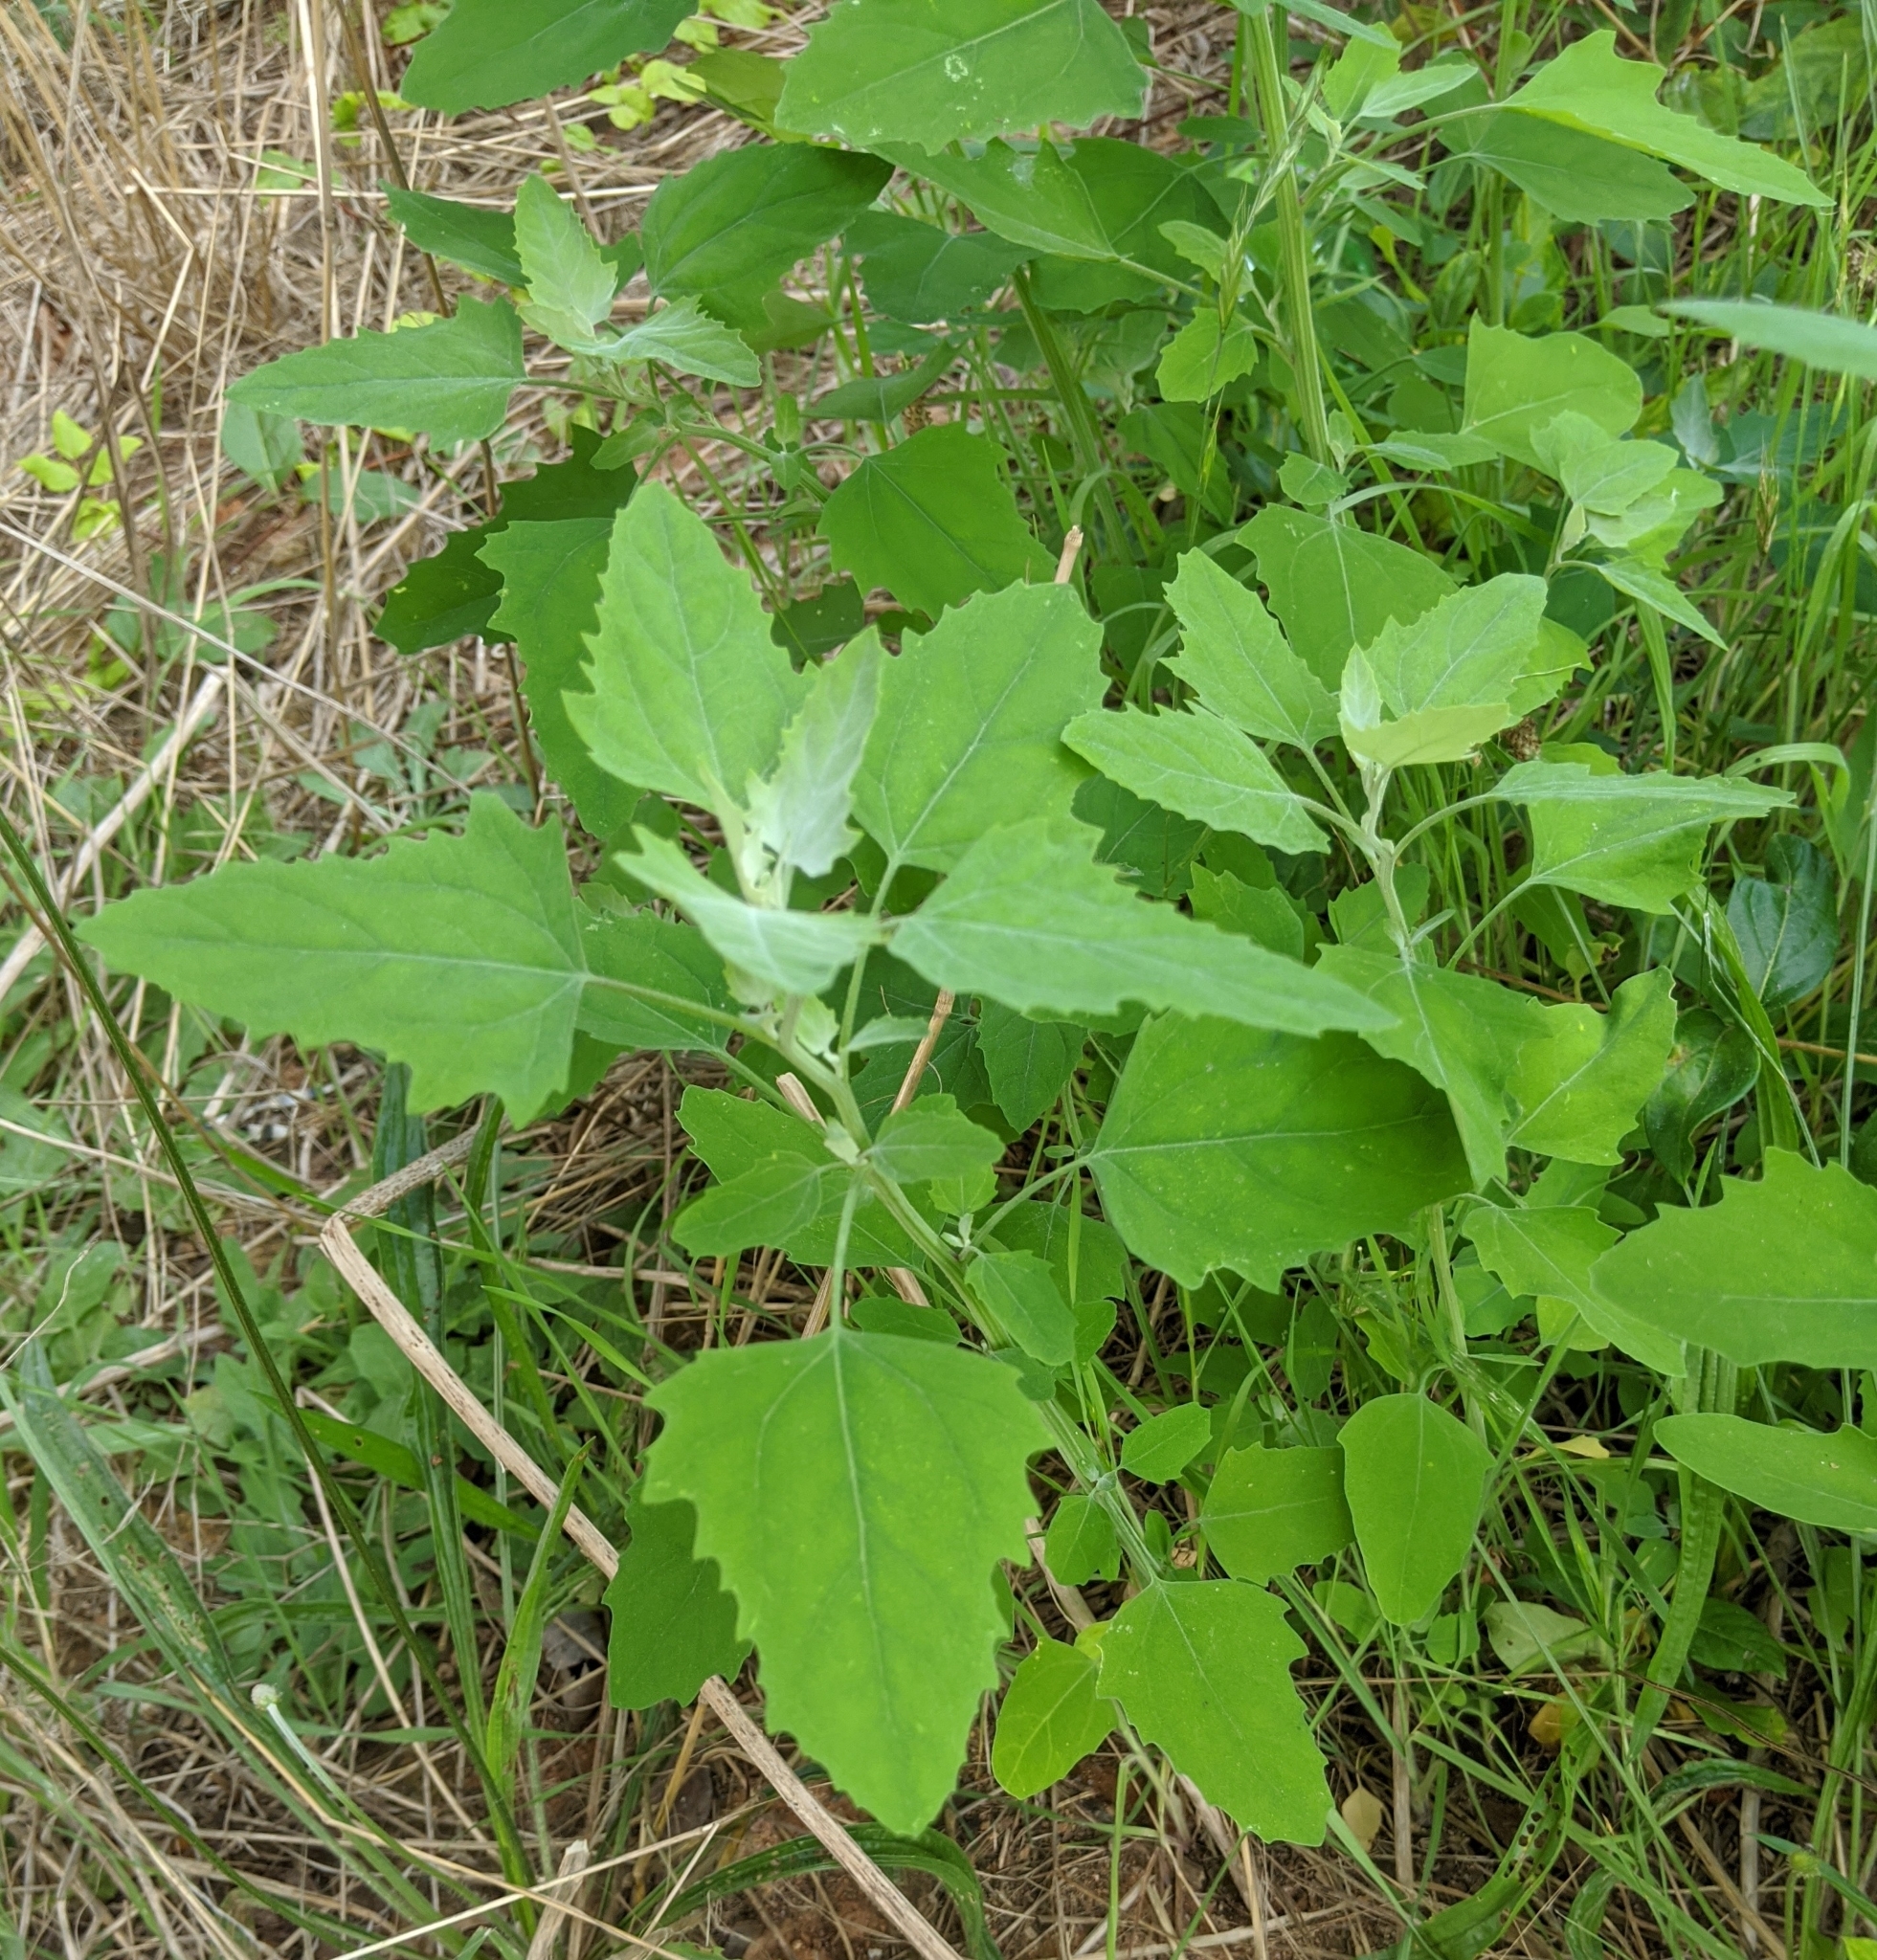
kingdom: Plantae
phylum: Tracheophyta
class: Magnoliopsida
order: Caryophyllales
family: Amaranthaceae
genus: Chenopodium
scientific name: Chenopodium album
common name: Fat-hen
